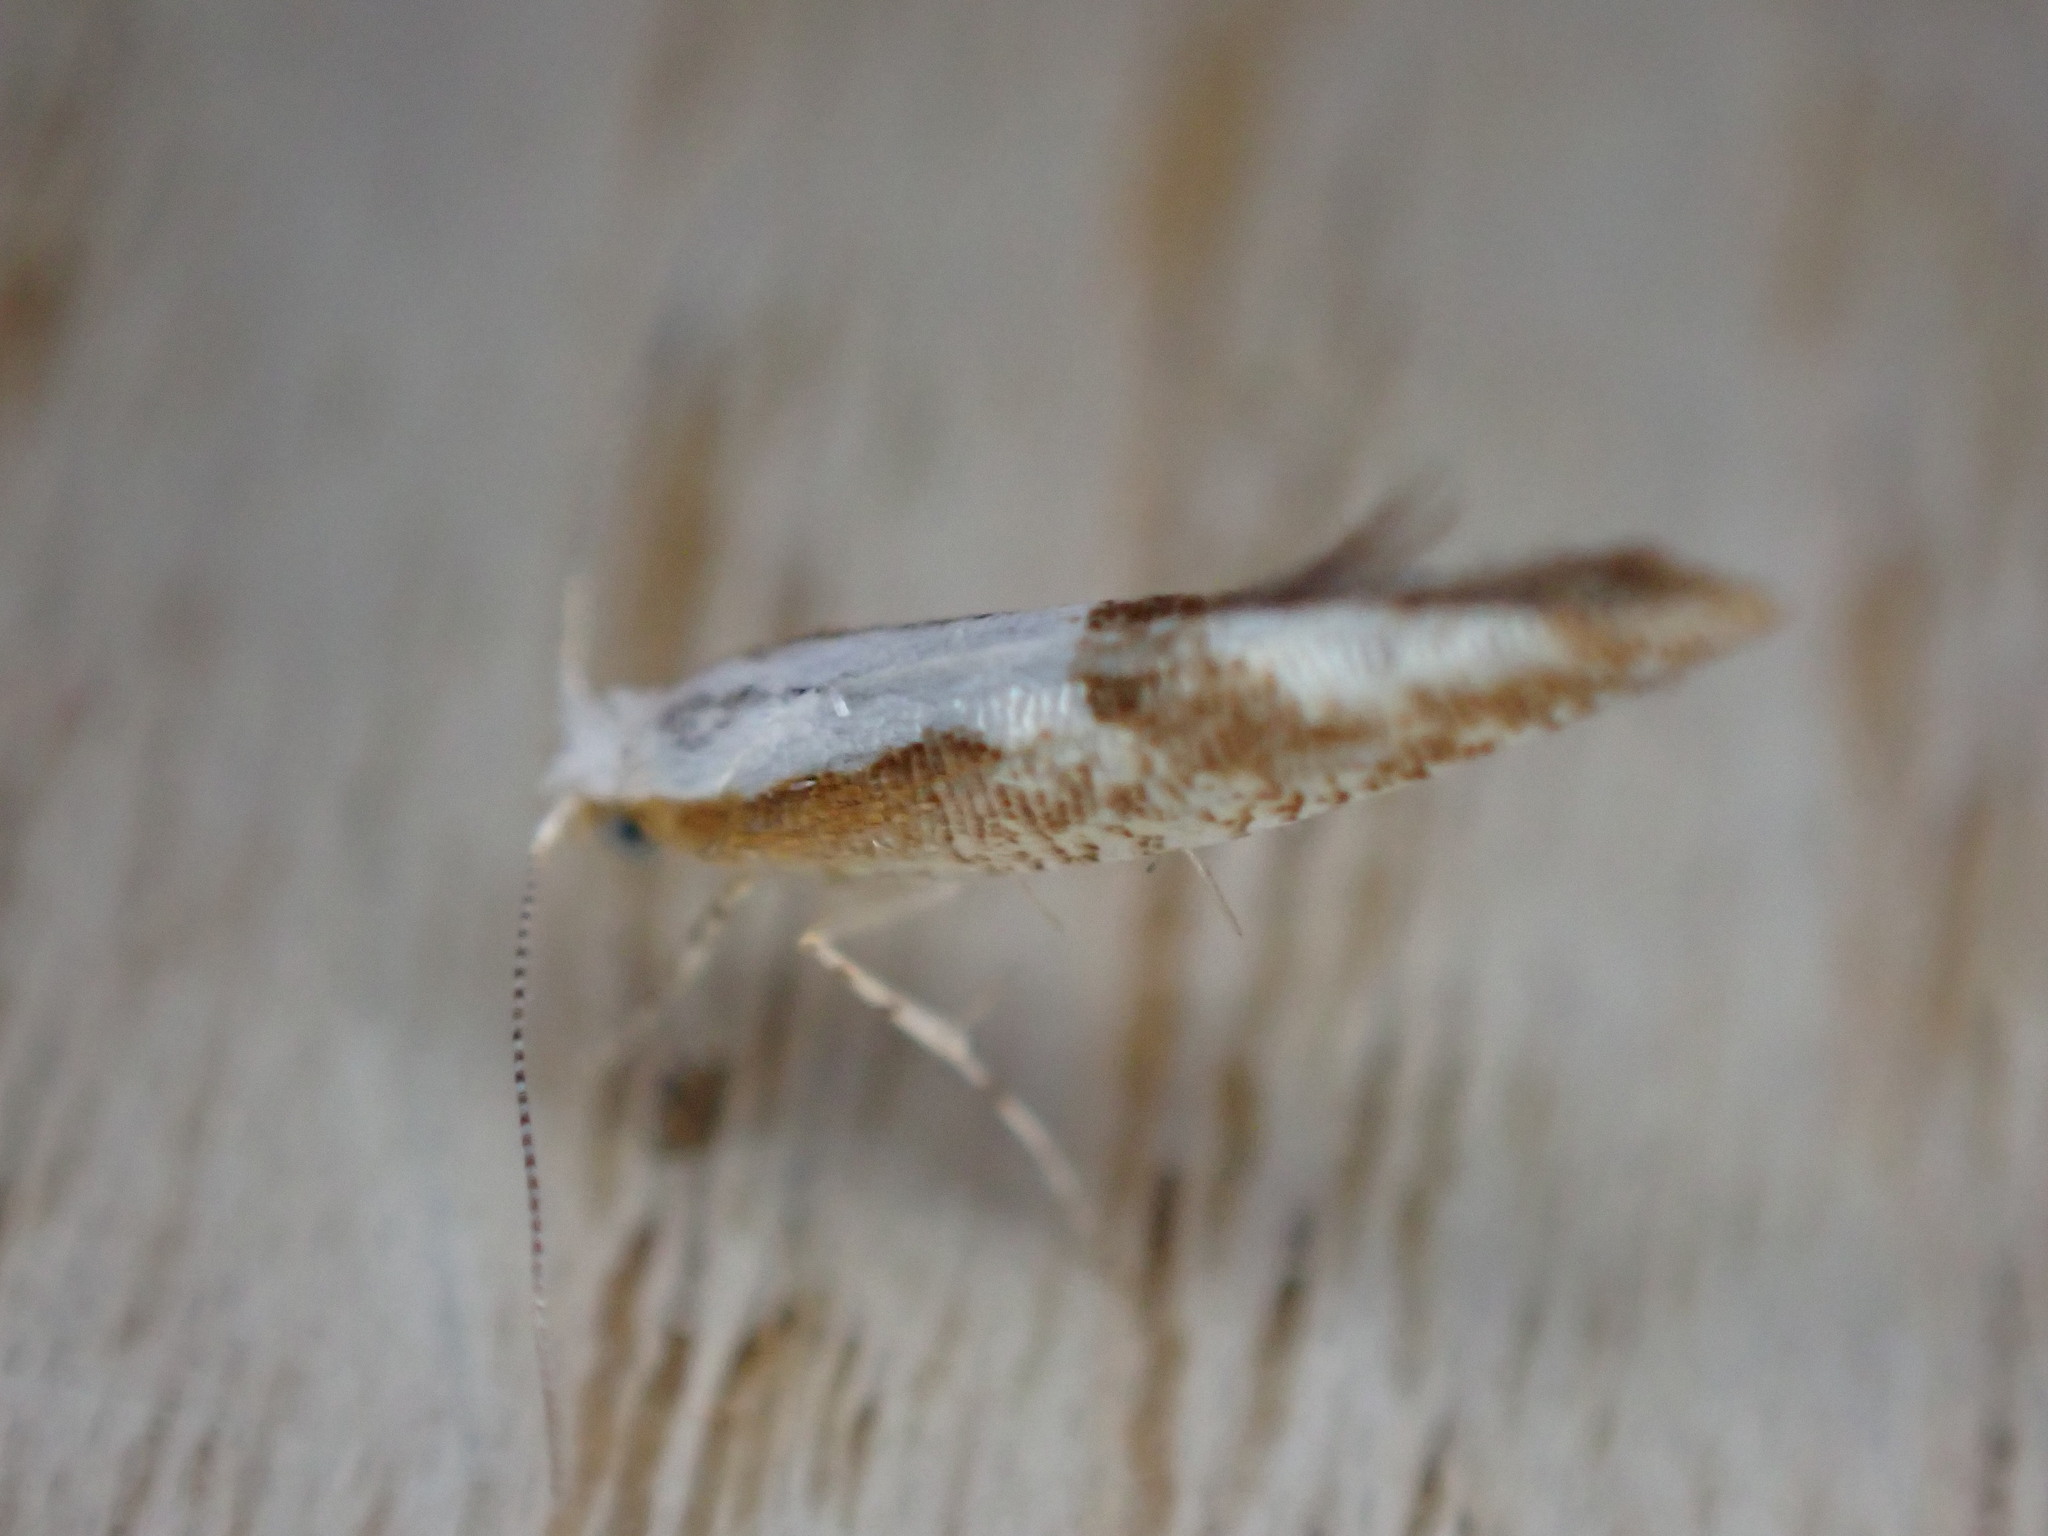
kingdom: Animalia
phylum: Arthropoda
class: Insecta
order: Lepidoptera
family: Argyresthiidae
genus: Argyresthia
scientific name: Argyresthia bonnetella
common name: Hawthorn argent
